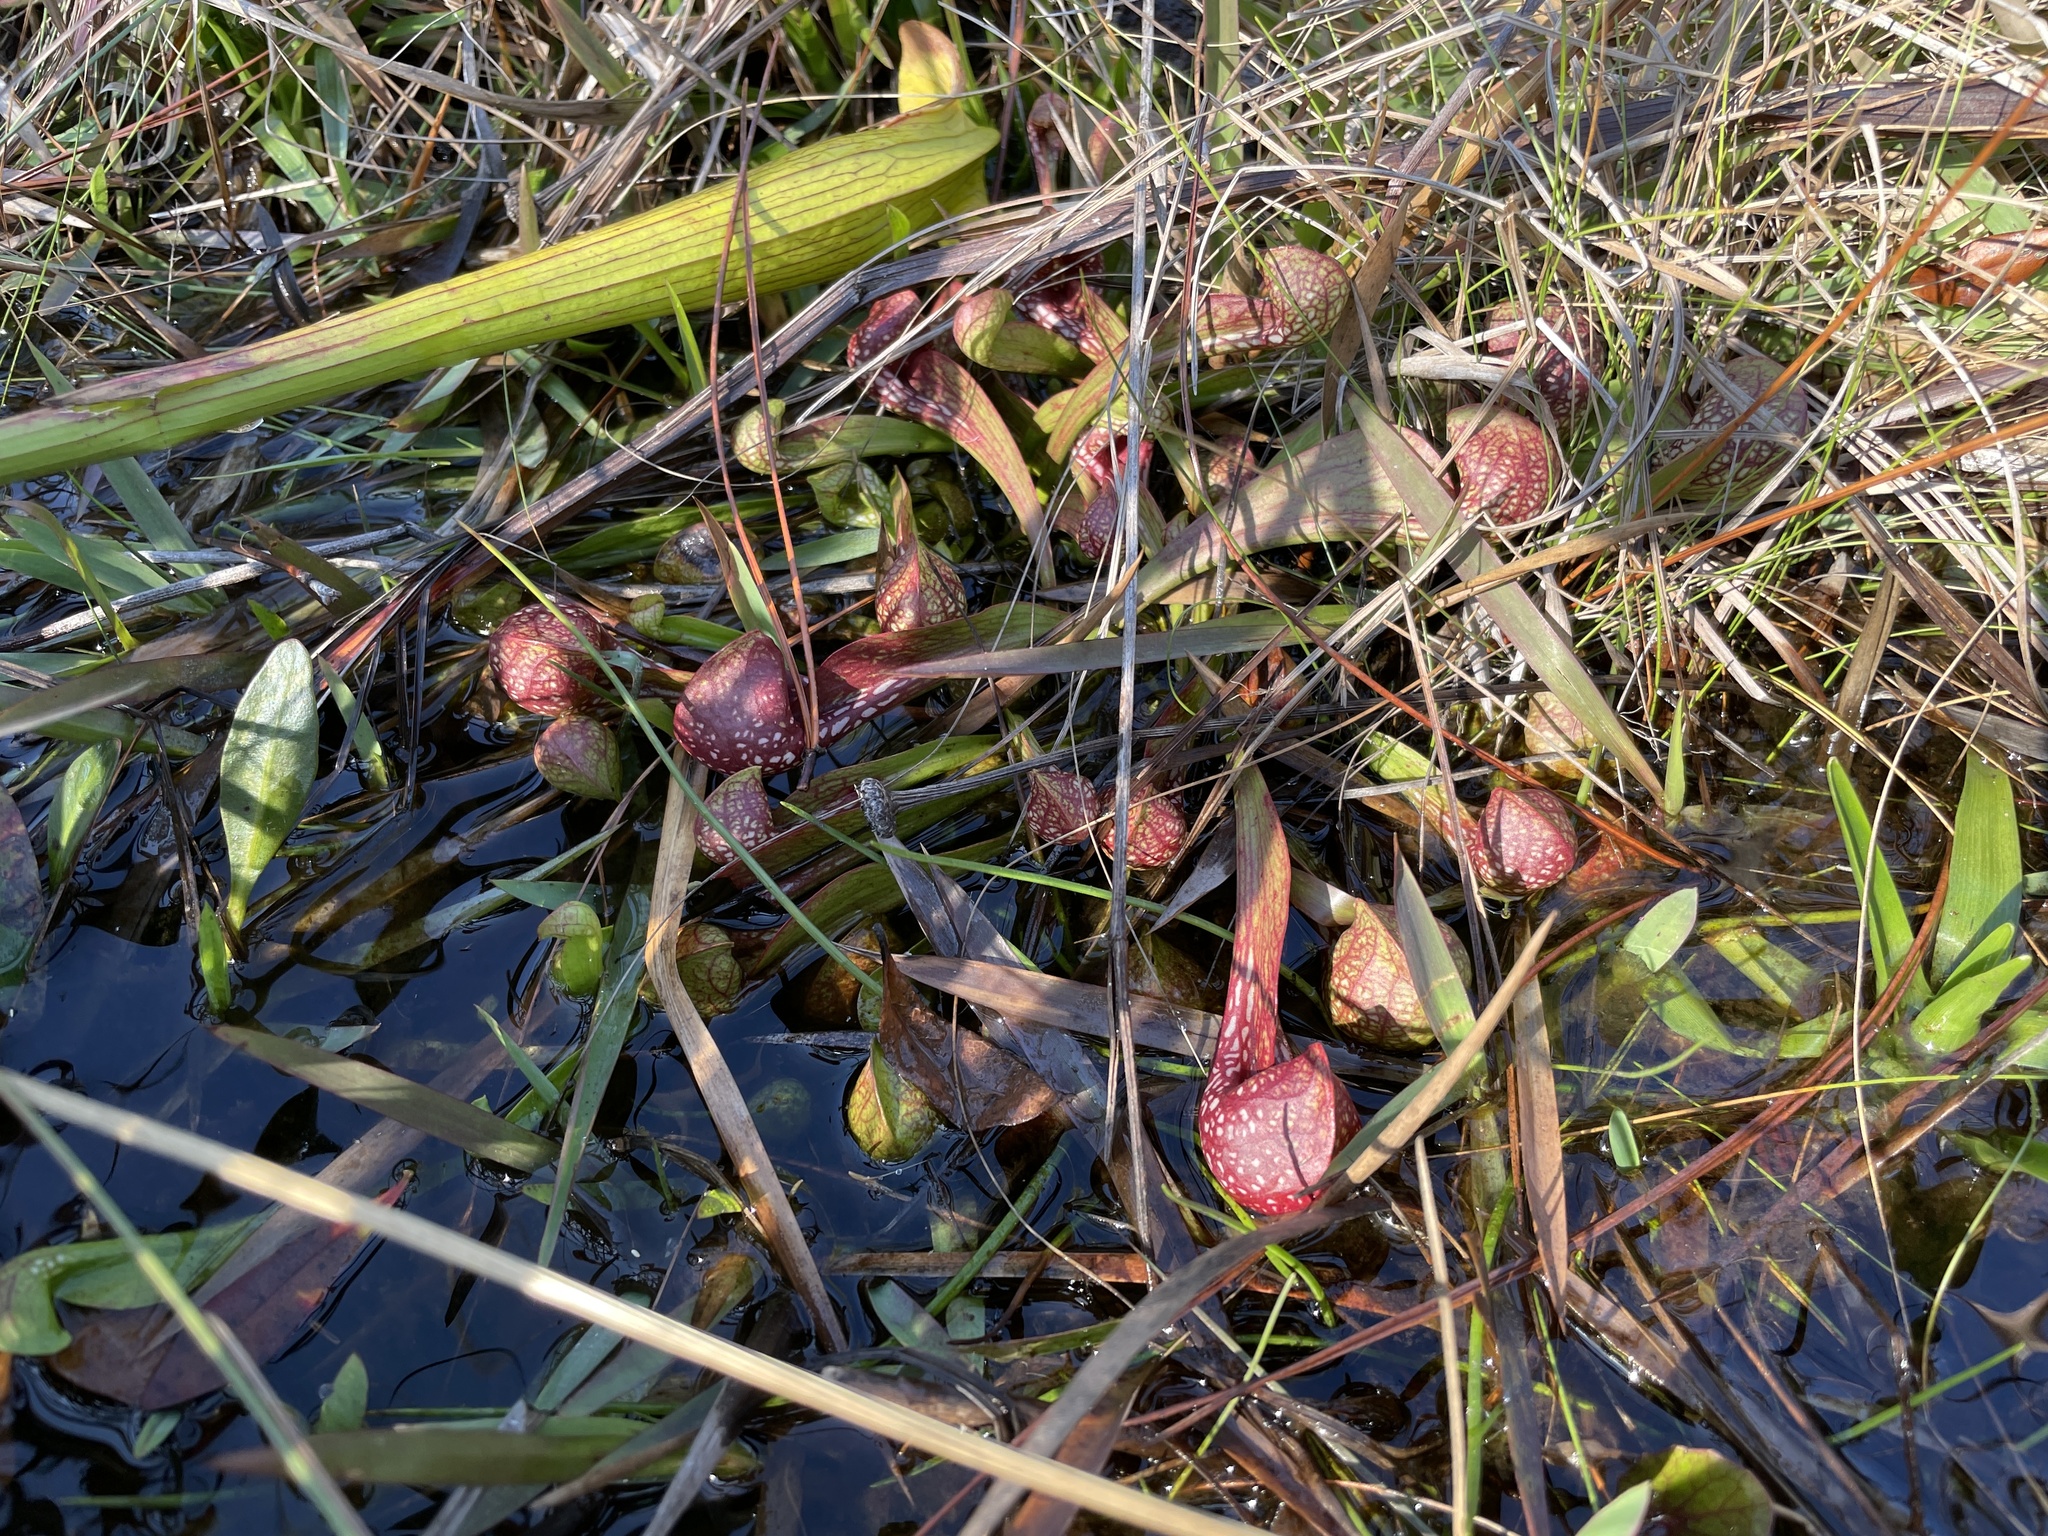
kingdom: Plantae
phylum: Tracheophyta
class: Magnoliopsida
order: Ericales
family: Sarraceniaceae
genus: Sarracenia
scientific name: Sarracenia psittacina
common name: Parrot pitcherplant
